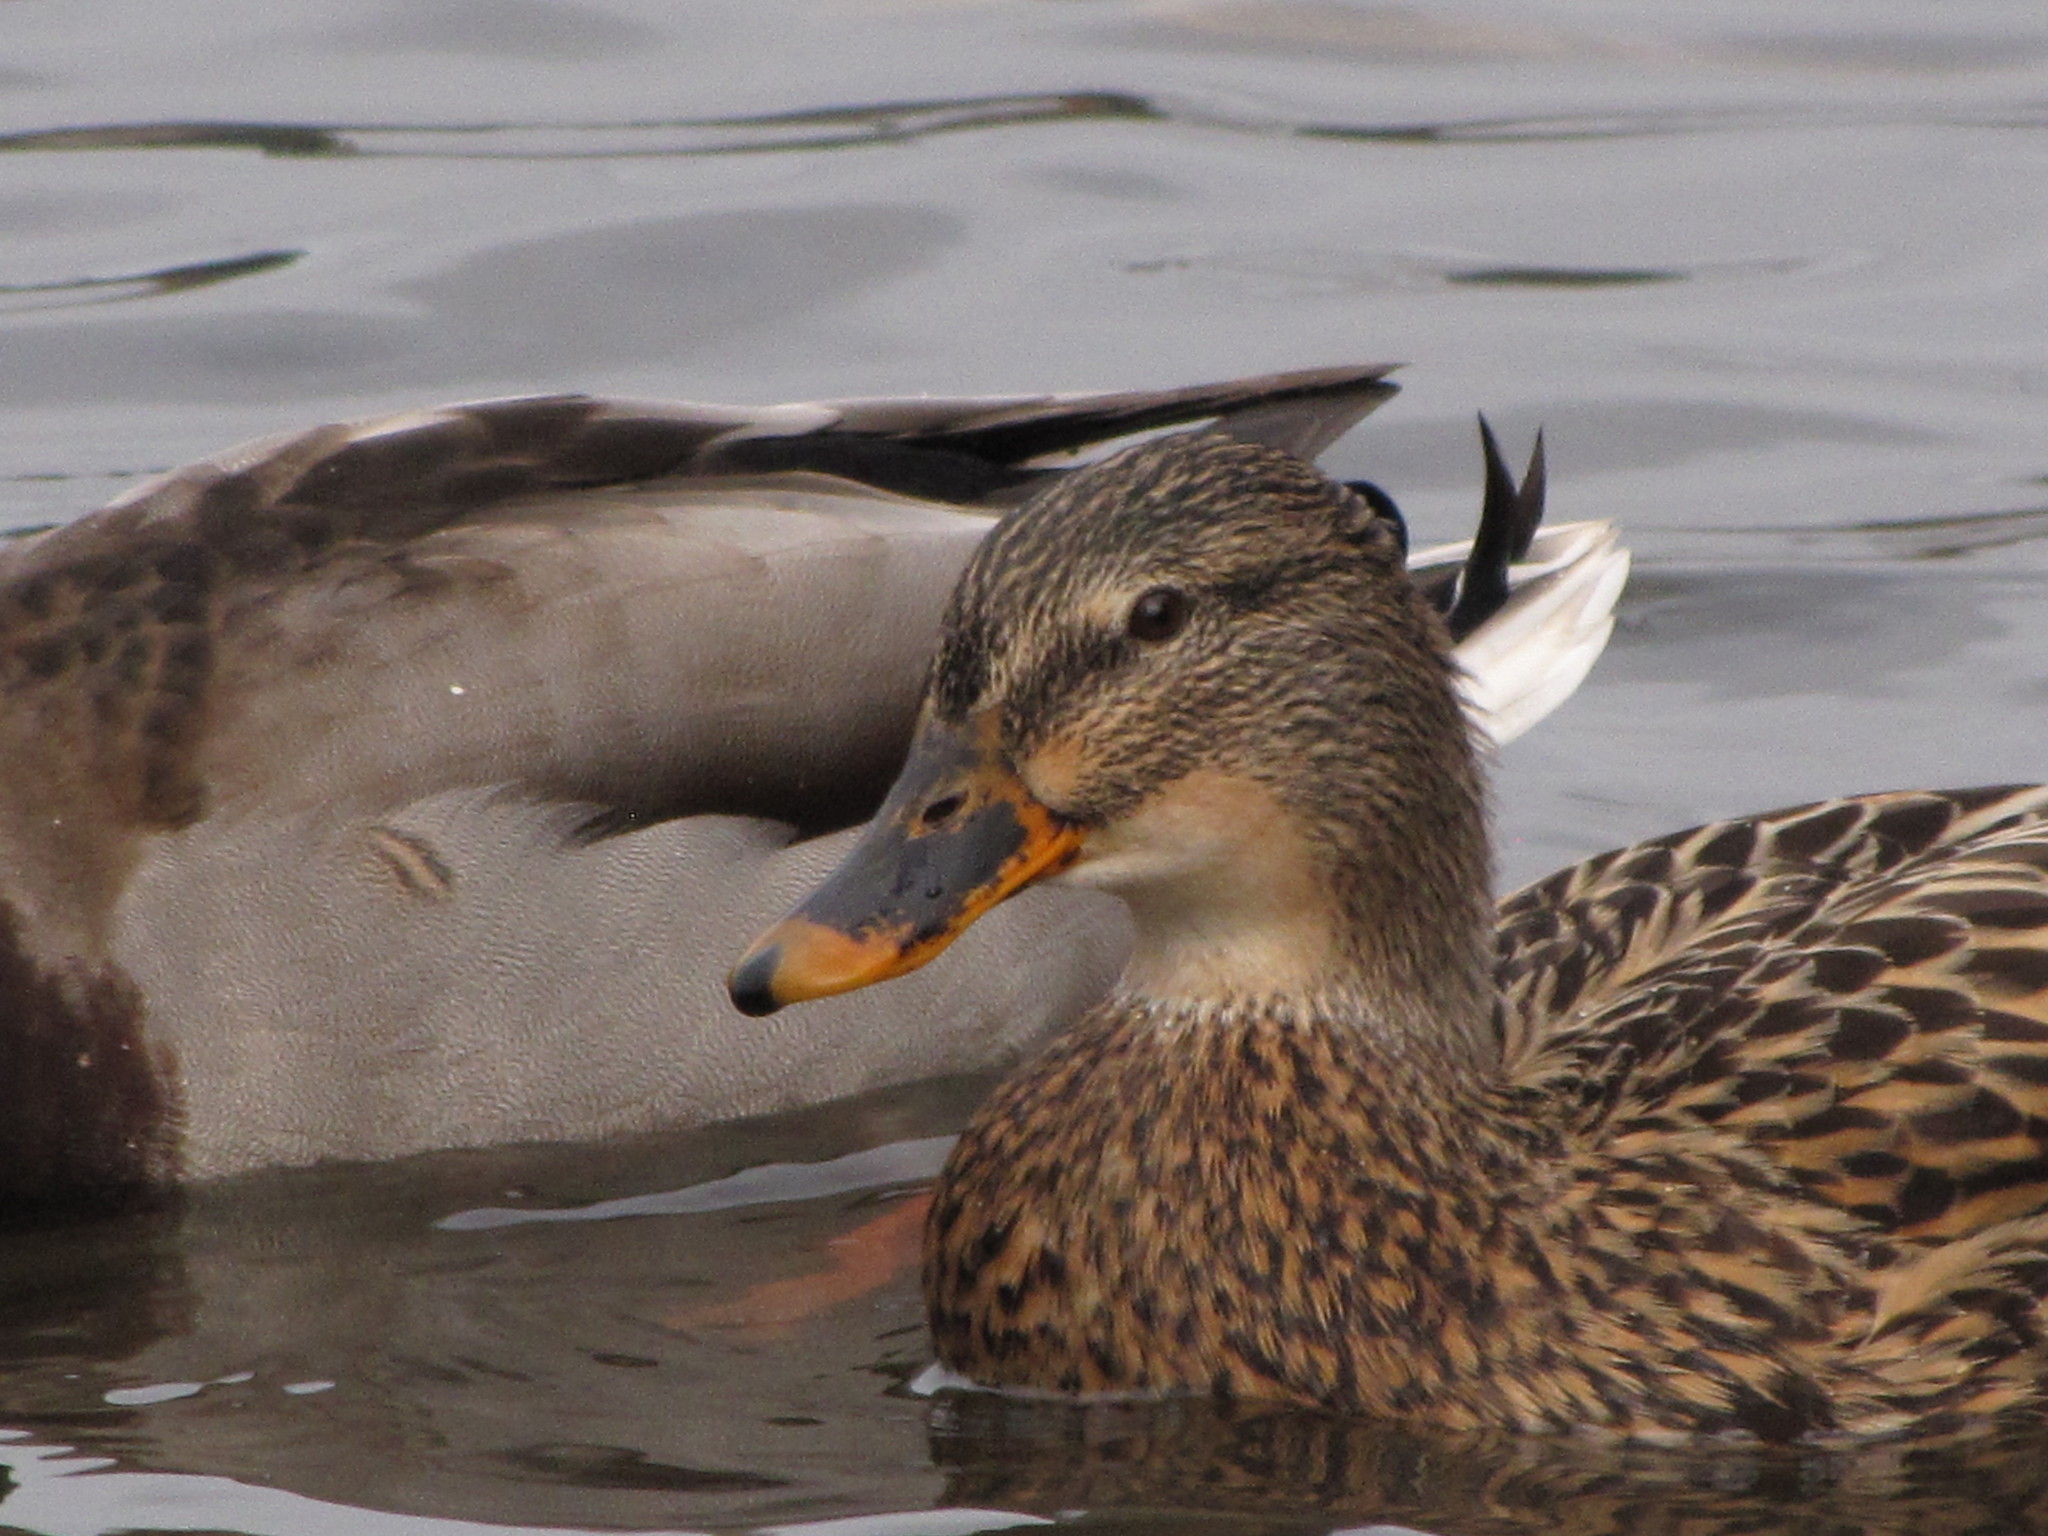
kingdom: Animalia
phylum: Chordata
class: Aves
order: Anseriformes
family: Anatidae
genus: Anas
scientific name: Anas platyrhynchos
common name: Mallard
